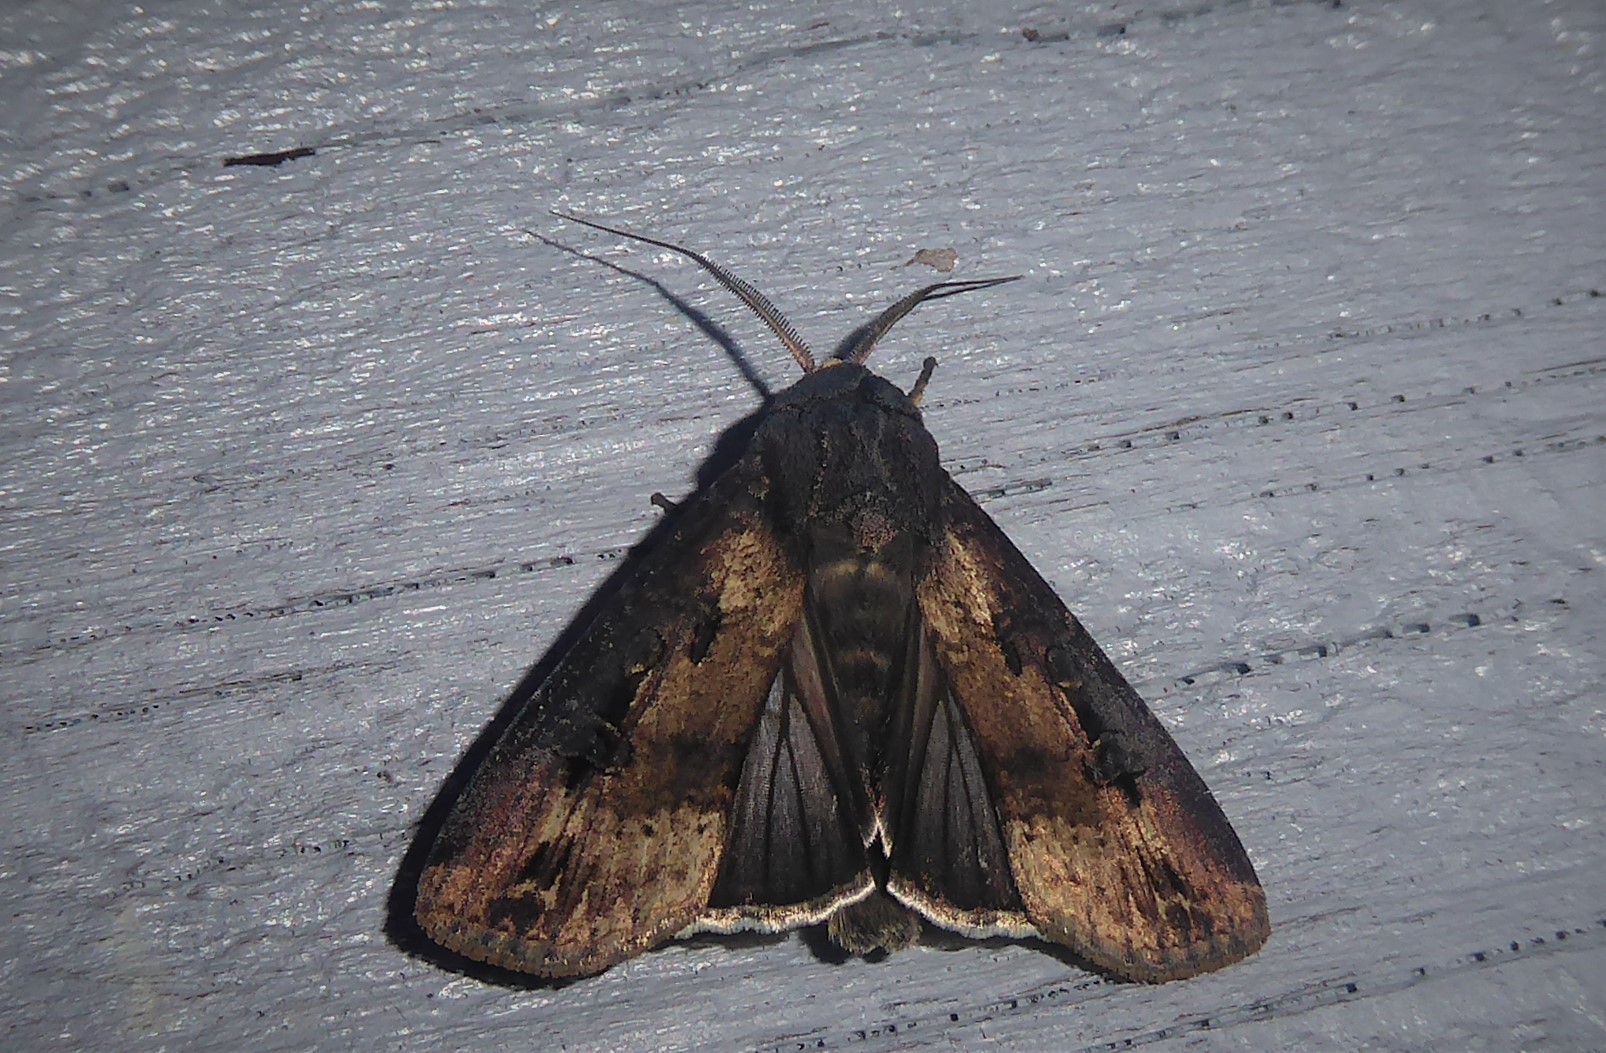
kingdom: Animalia
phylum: Arthropoda
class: Insecta
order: Lepidoptera
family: Noctuidae
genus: Agrotis
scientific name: Agrotis ipsilon
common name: Dark sword-grass
